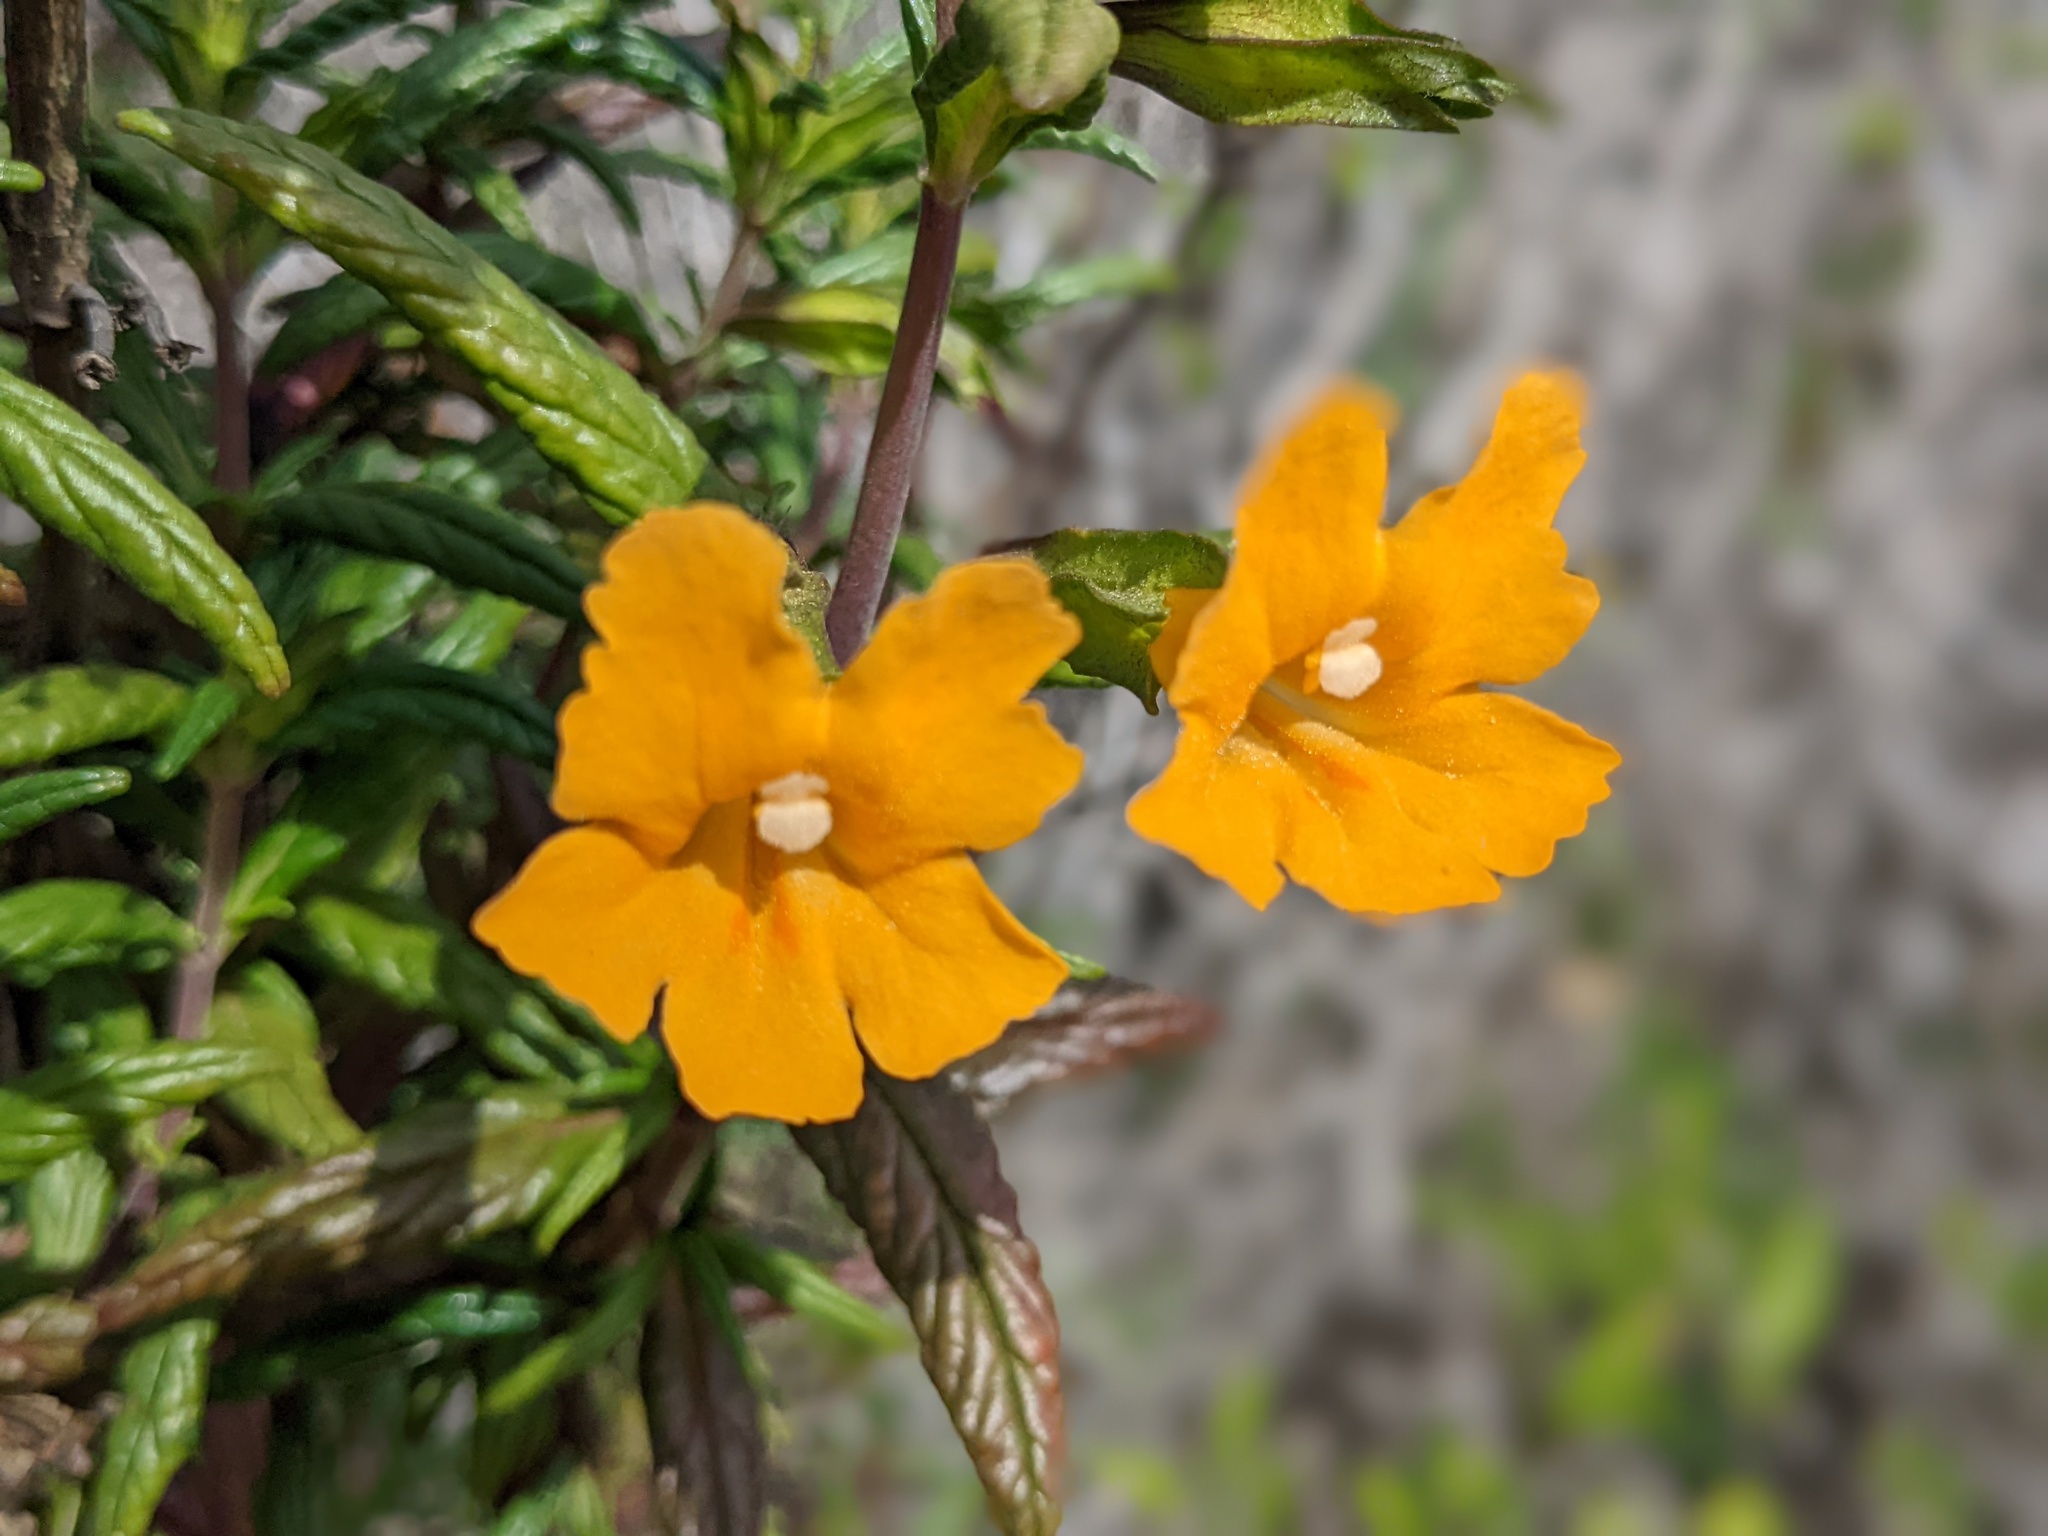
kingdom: Plantae
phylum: Tracheophyta
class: Magnoliopsida
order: Lamiales
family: Phrymaceae
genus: Diplacus
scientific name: Diplacus aurantiacus
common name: Bush monkey-flower
